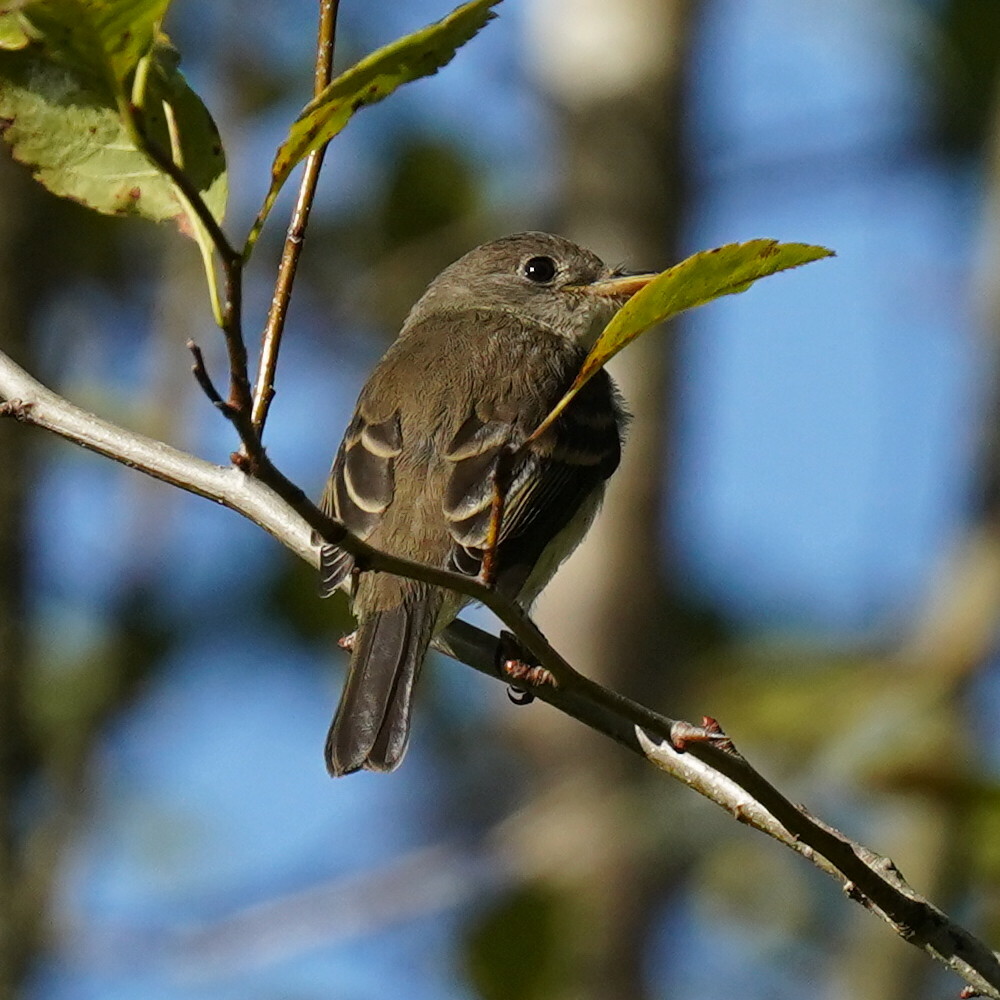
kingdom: Animalia
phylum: Chordata
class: Aves
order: Passeriformes
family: Tyrannidae
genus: Empidonax
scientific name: Empidonax traillii
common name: Willow flycatcher
